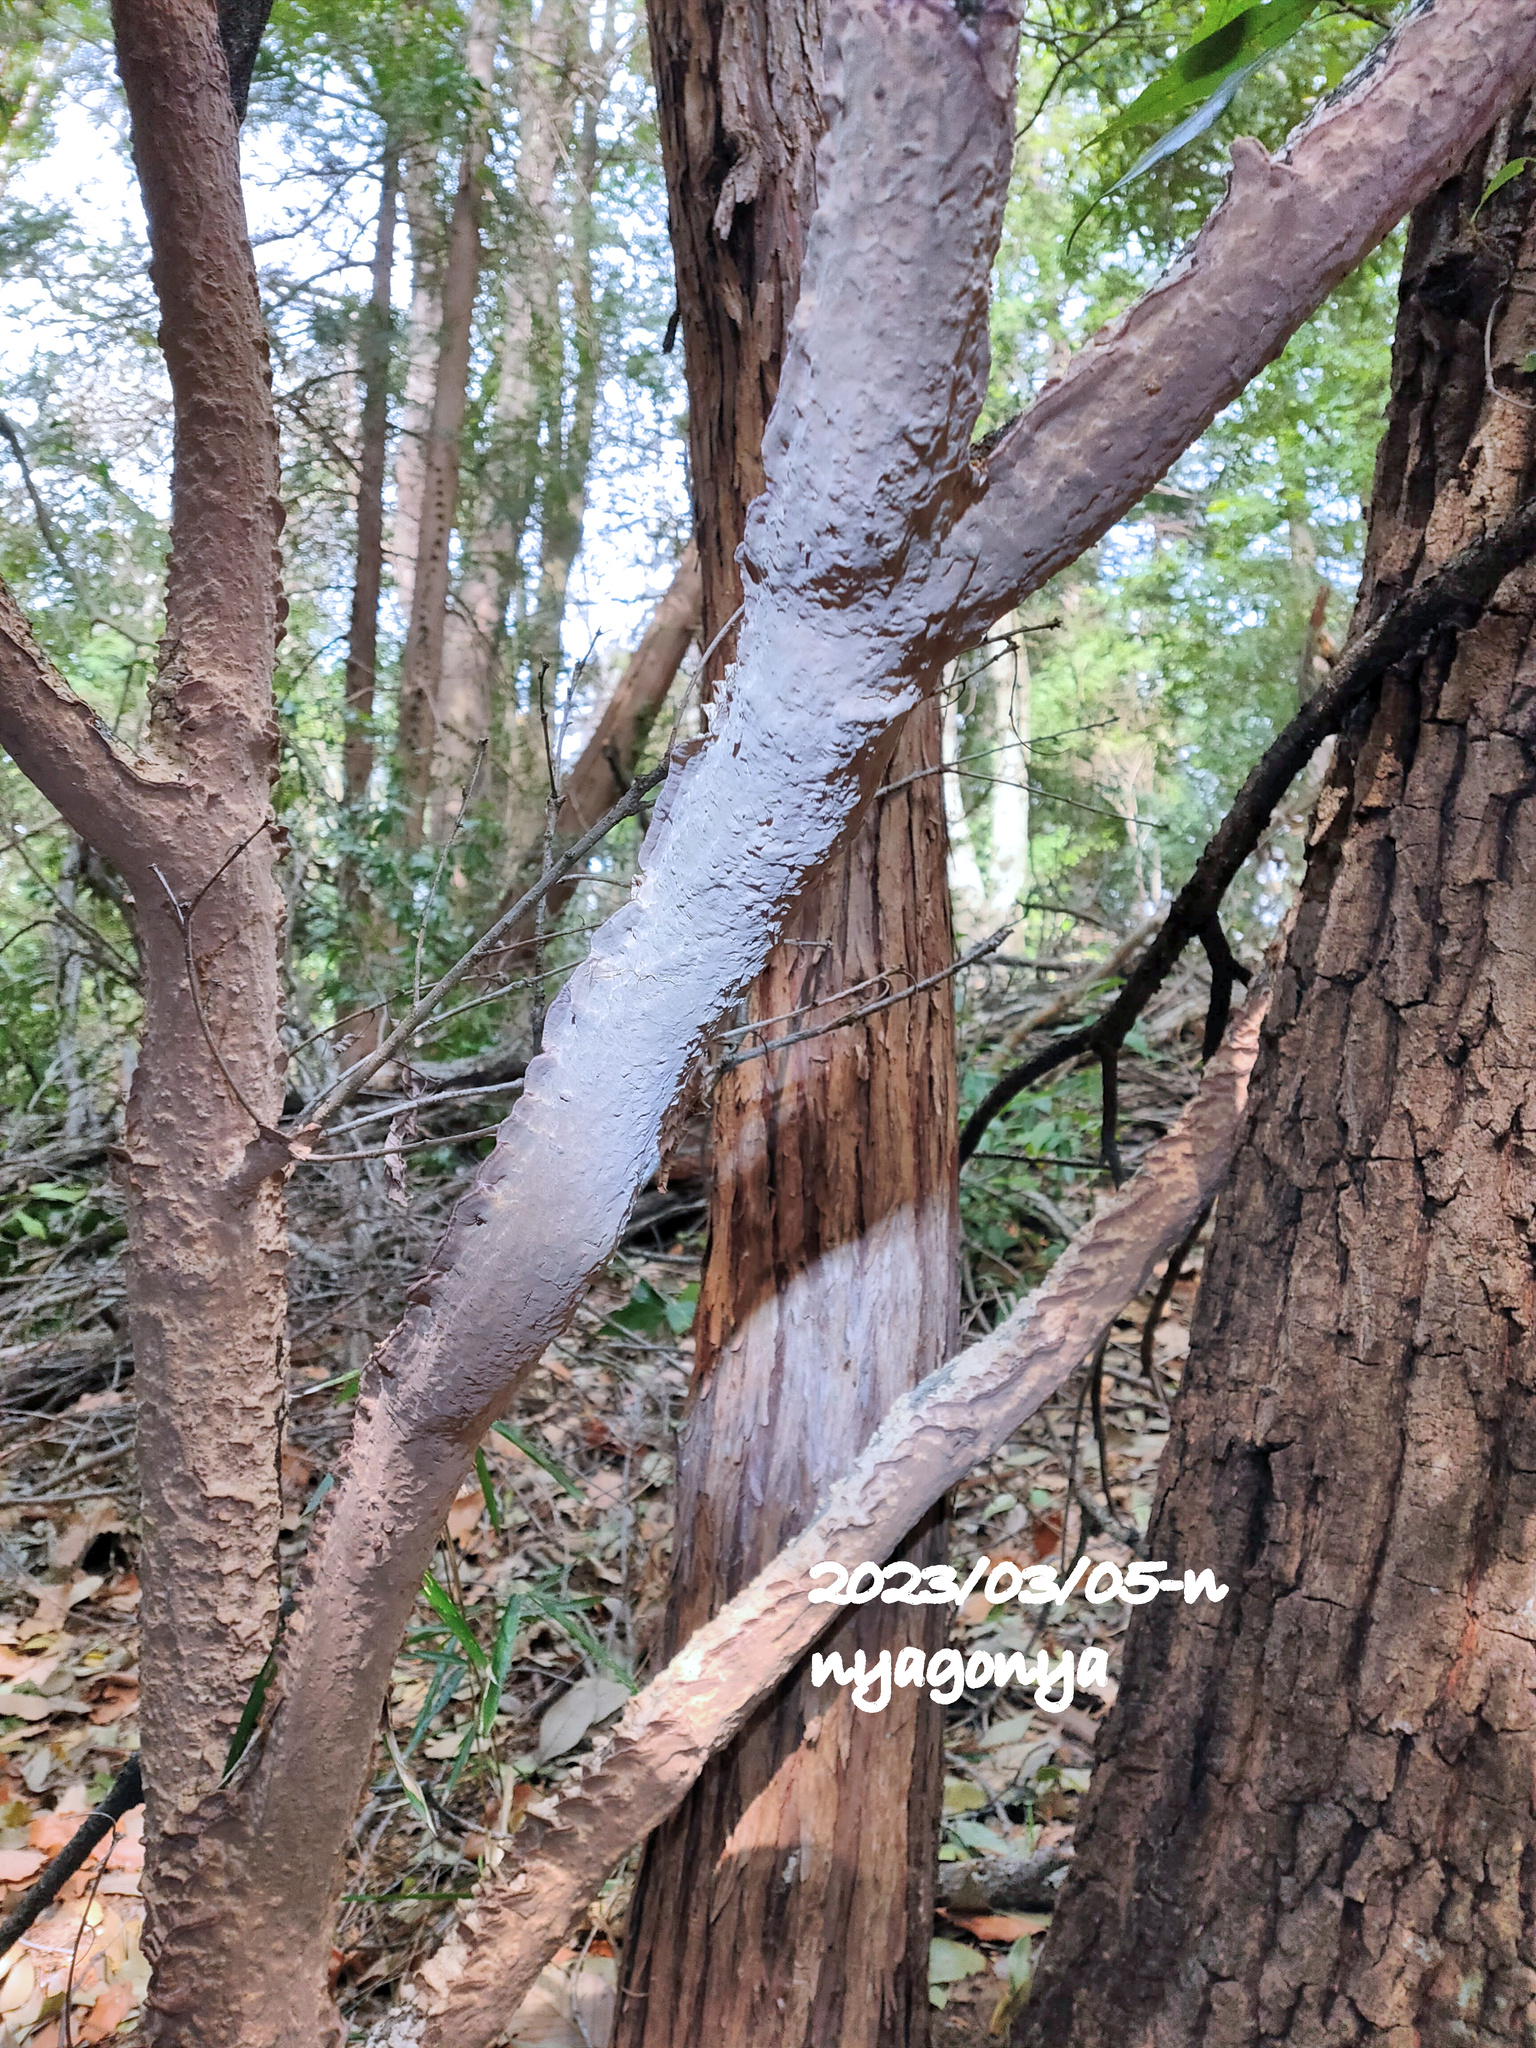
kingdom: Fungi
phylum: Basidiomycota
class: Agaricomycetes
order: Polyporales
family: Phanerochaetaceae
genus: Phlebiopsis
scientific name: Phlebiopsis crassa
